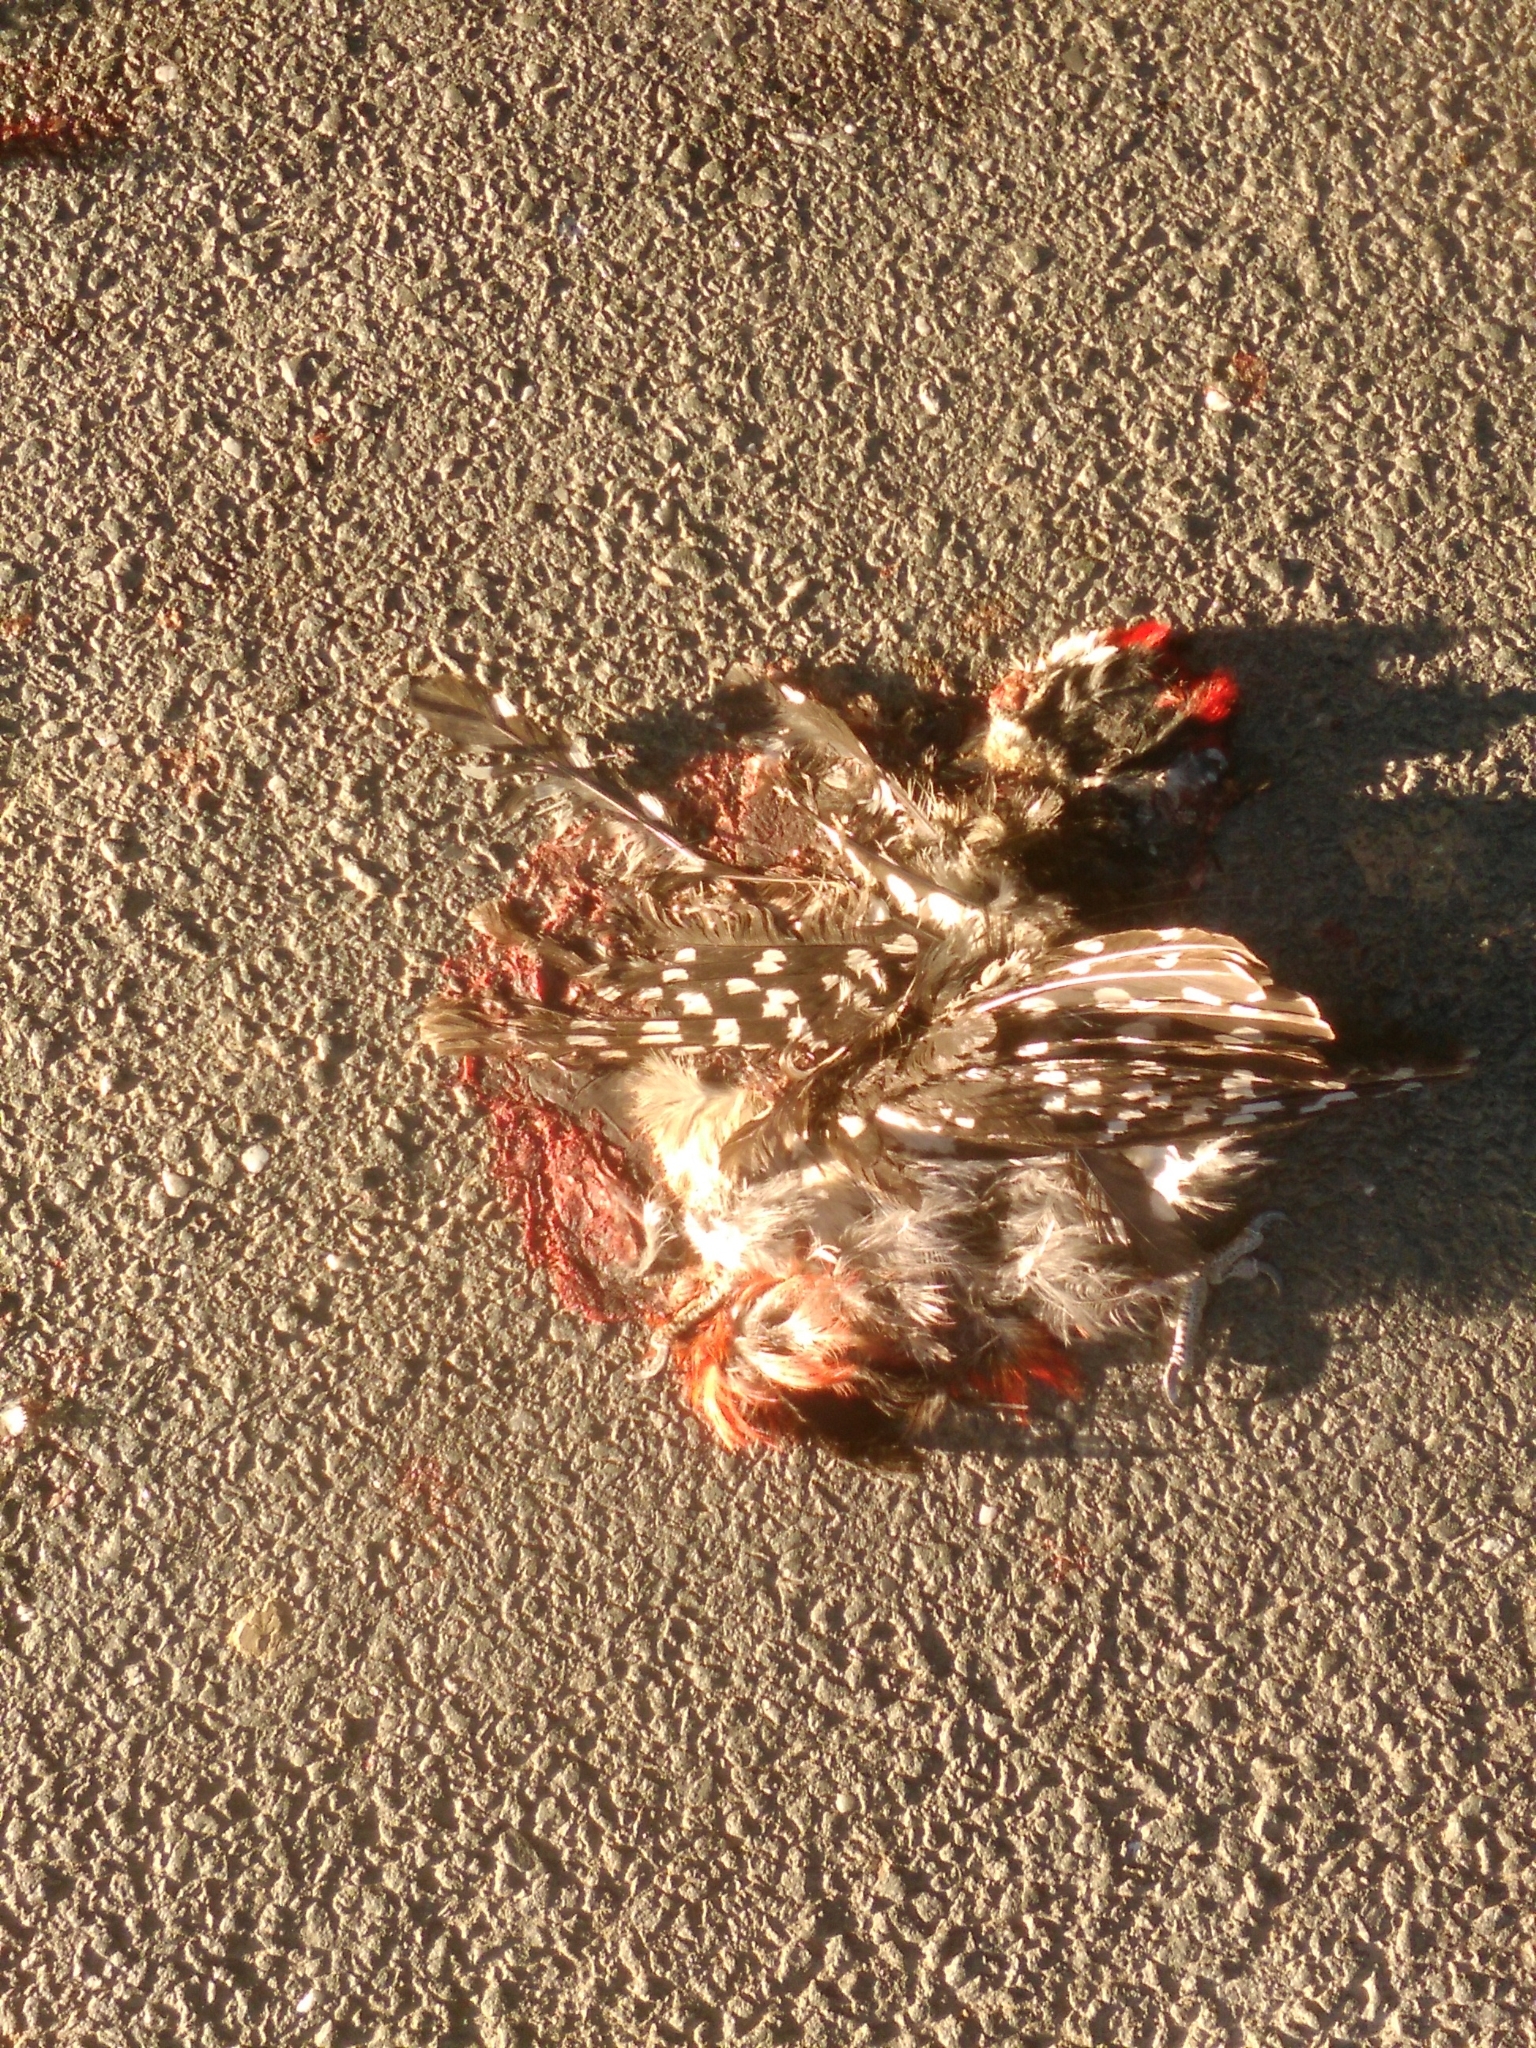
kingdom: Animalia
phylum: Chordata
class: Aves
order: Piciformes
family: Picidae
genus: Dendrocopos
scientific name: Dendrocopos major
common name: Great spotted woodpecker
